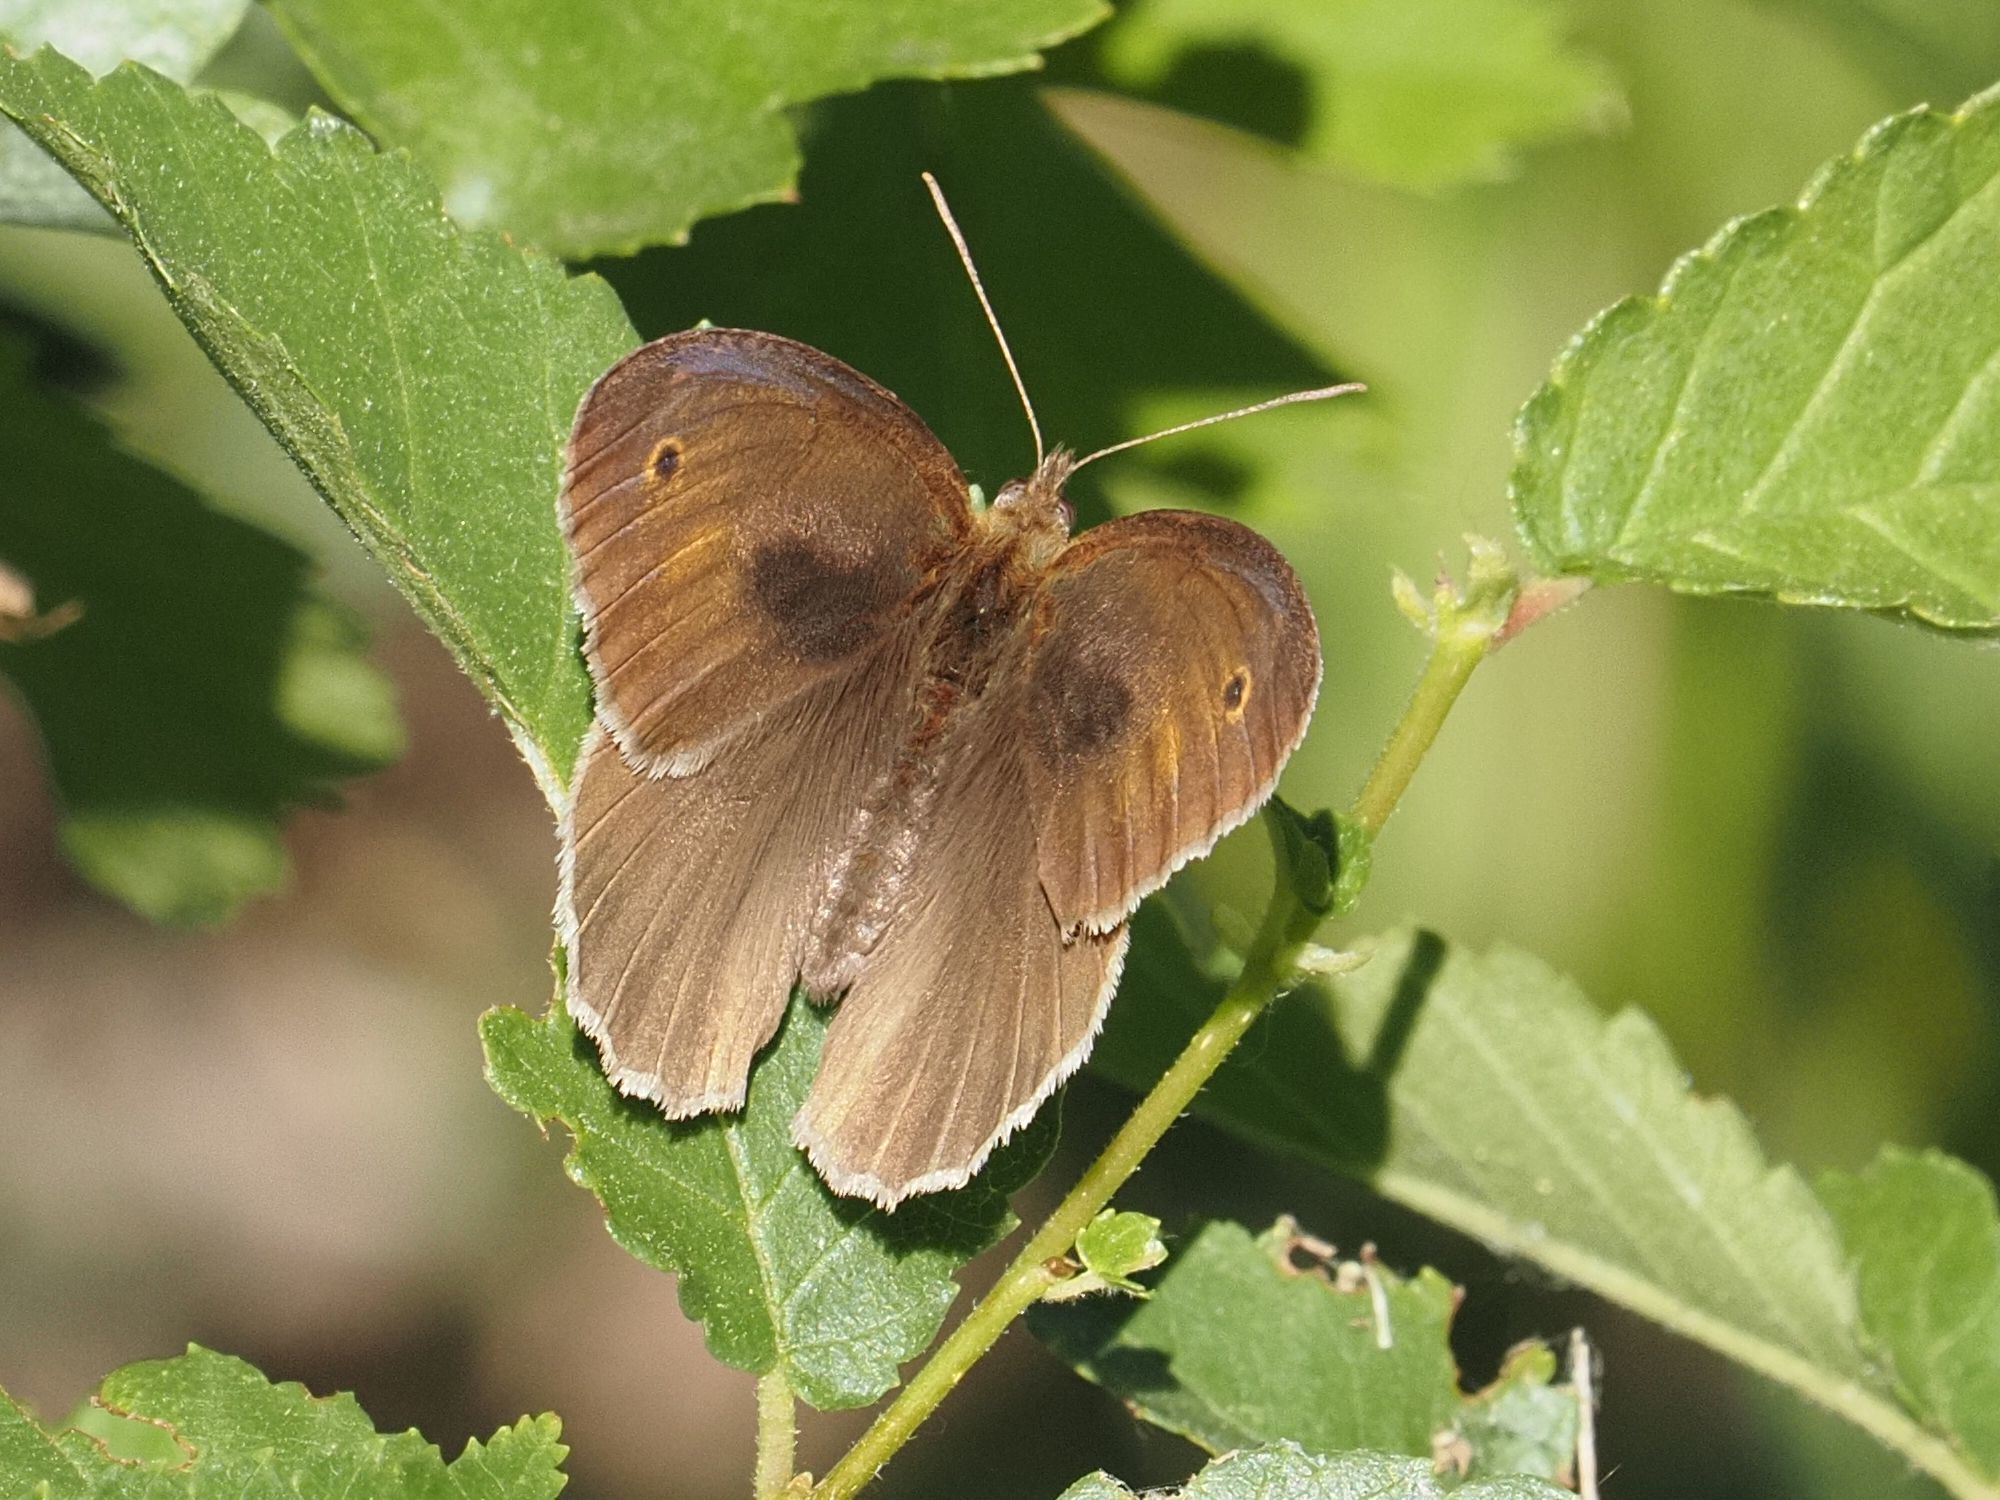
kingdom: Animalia
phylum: Arthropoda
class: Insecta
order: Lepidoptera
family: Nymphalidae
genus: Maniola
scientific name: Maniola jurtina
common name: Meadow brown
